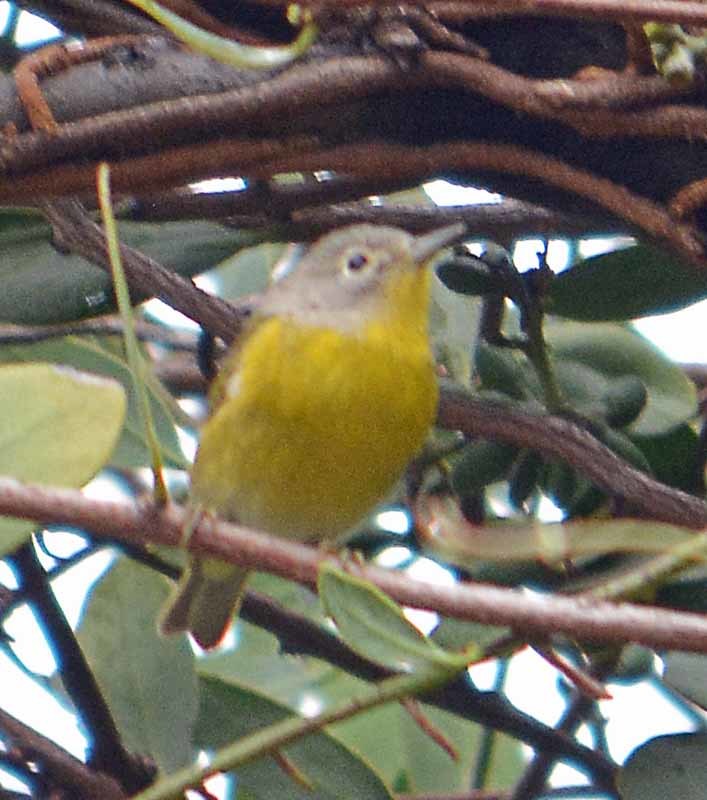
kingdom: Animalia
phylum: Chordata
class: Aves
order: Passeriformes
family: Parulidae
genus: Leiothlypis
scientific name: Leiothlypis ruficapilla
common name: Nashville warbler
